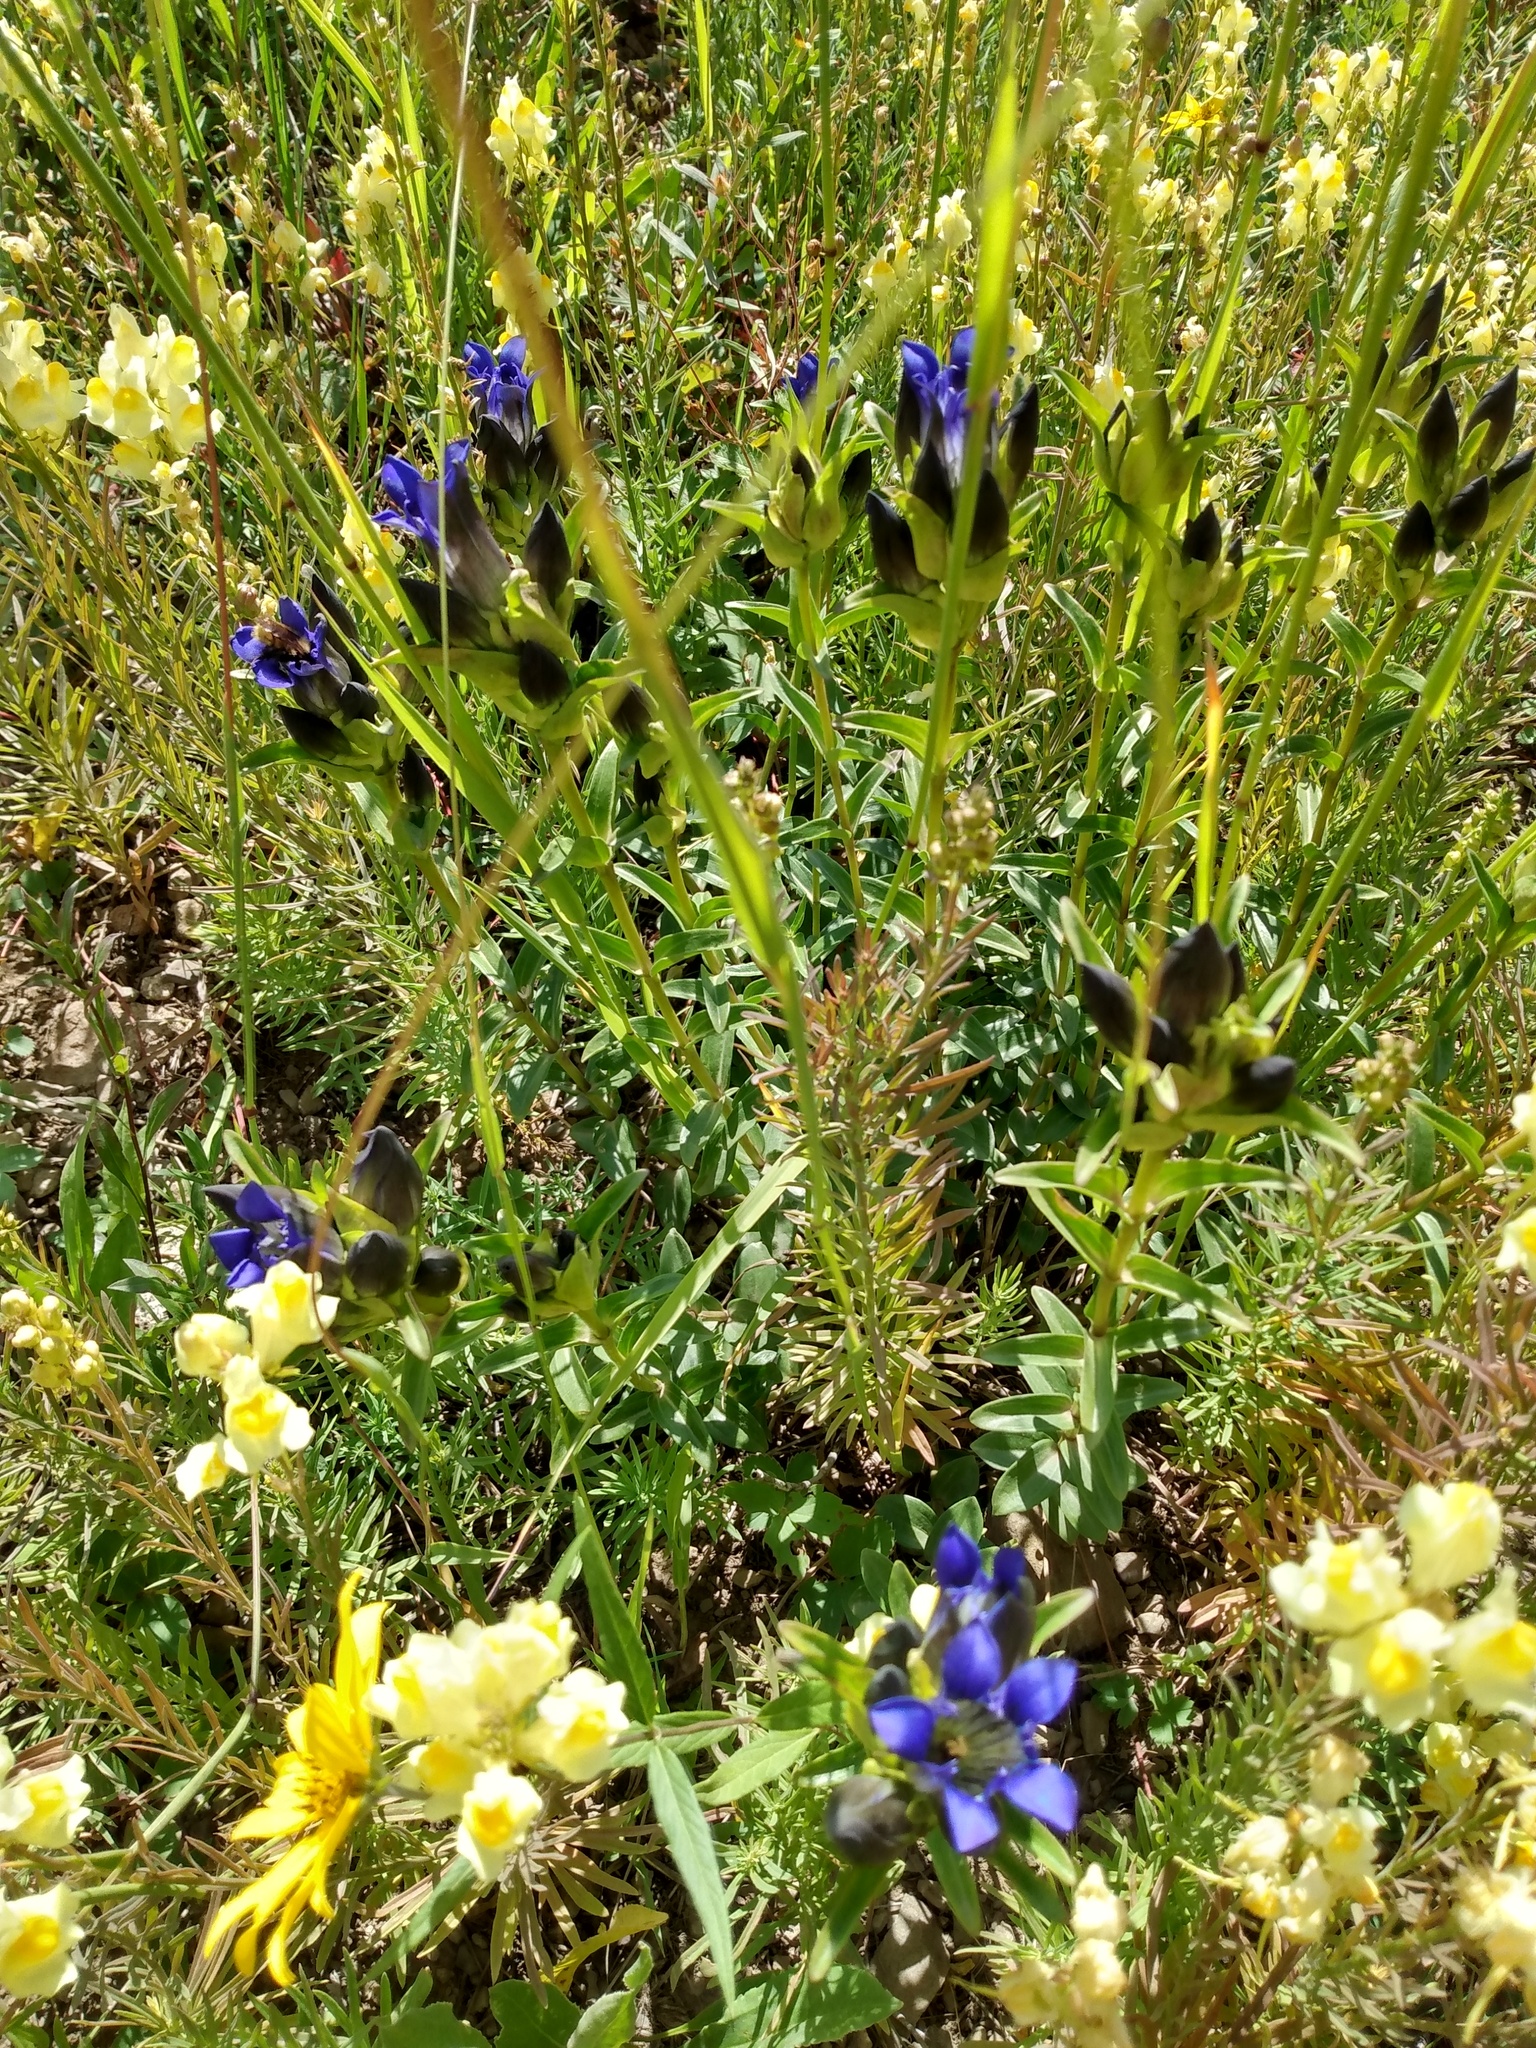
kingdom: Plantae
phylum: Tracheophyta
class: Magnoliopsida
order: Gentianales
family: Gentianaceae
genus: Gentiana
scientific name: Gentiana parryi
